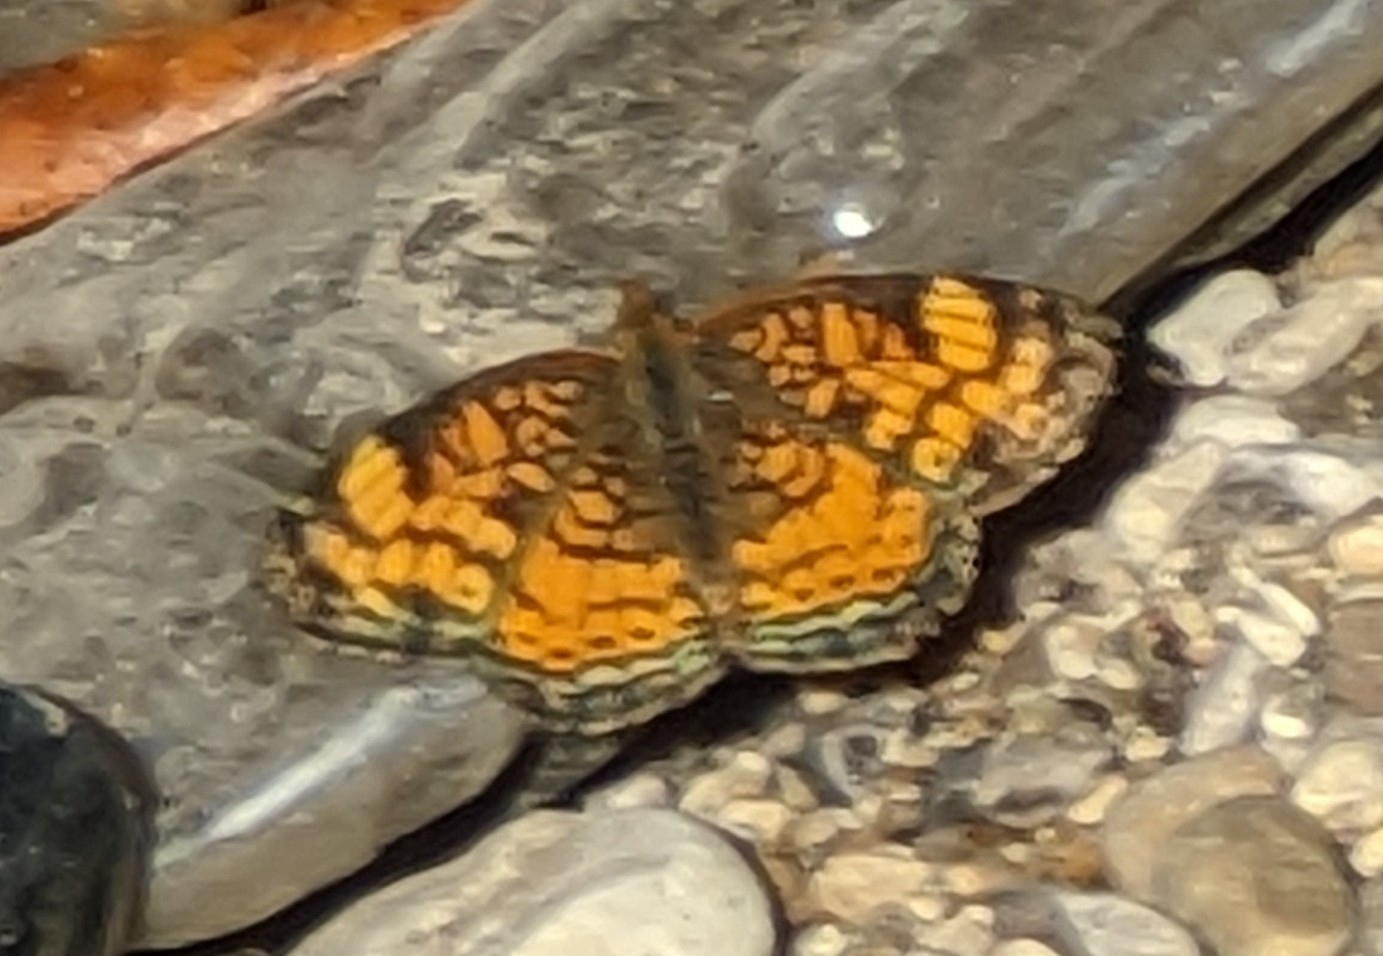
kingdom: Animalia
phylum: Arthropoda
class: Insecta
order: Lepidoptera
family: Nymphalidae
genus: Phyciodes
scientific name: Phyciodes tharos
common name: Pearl crescent
